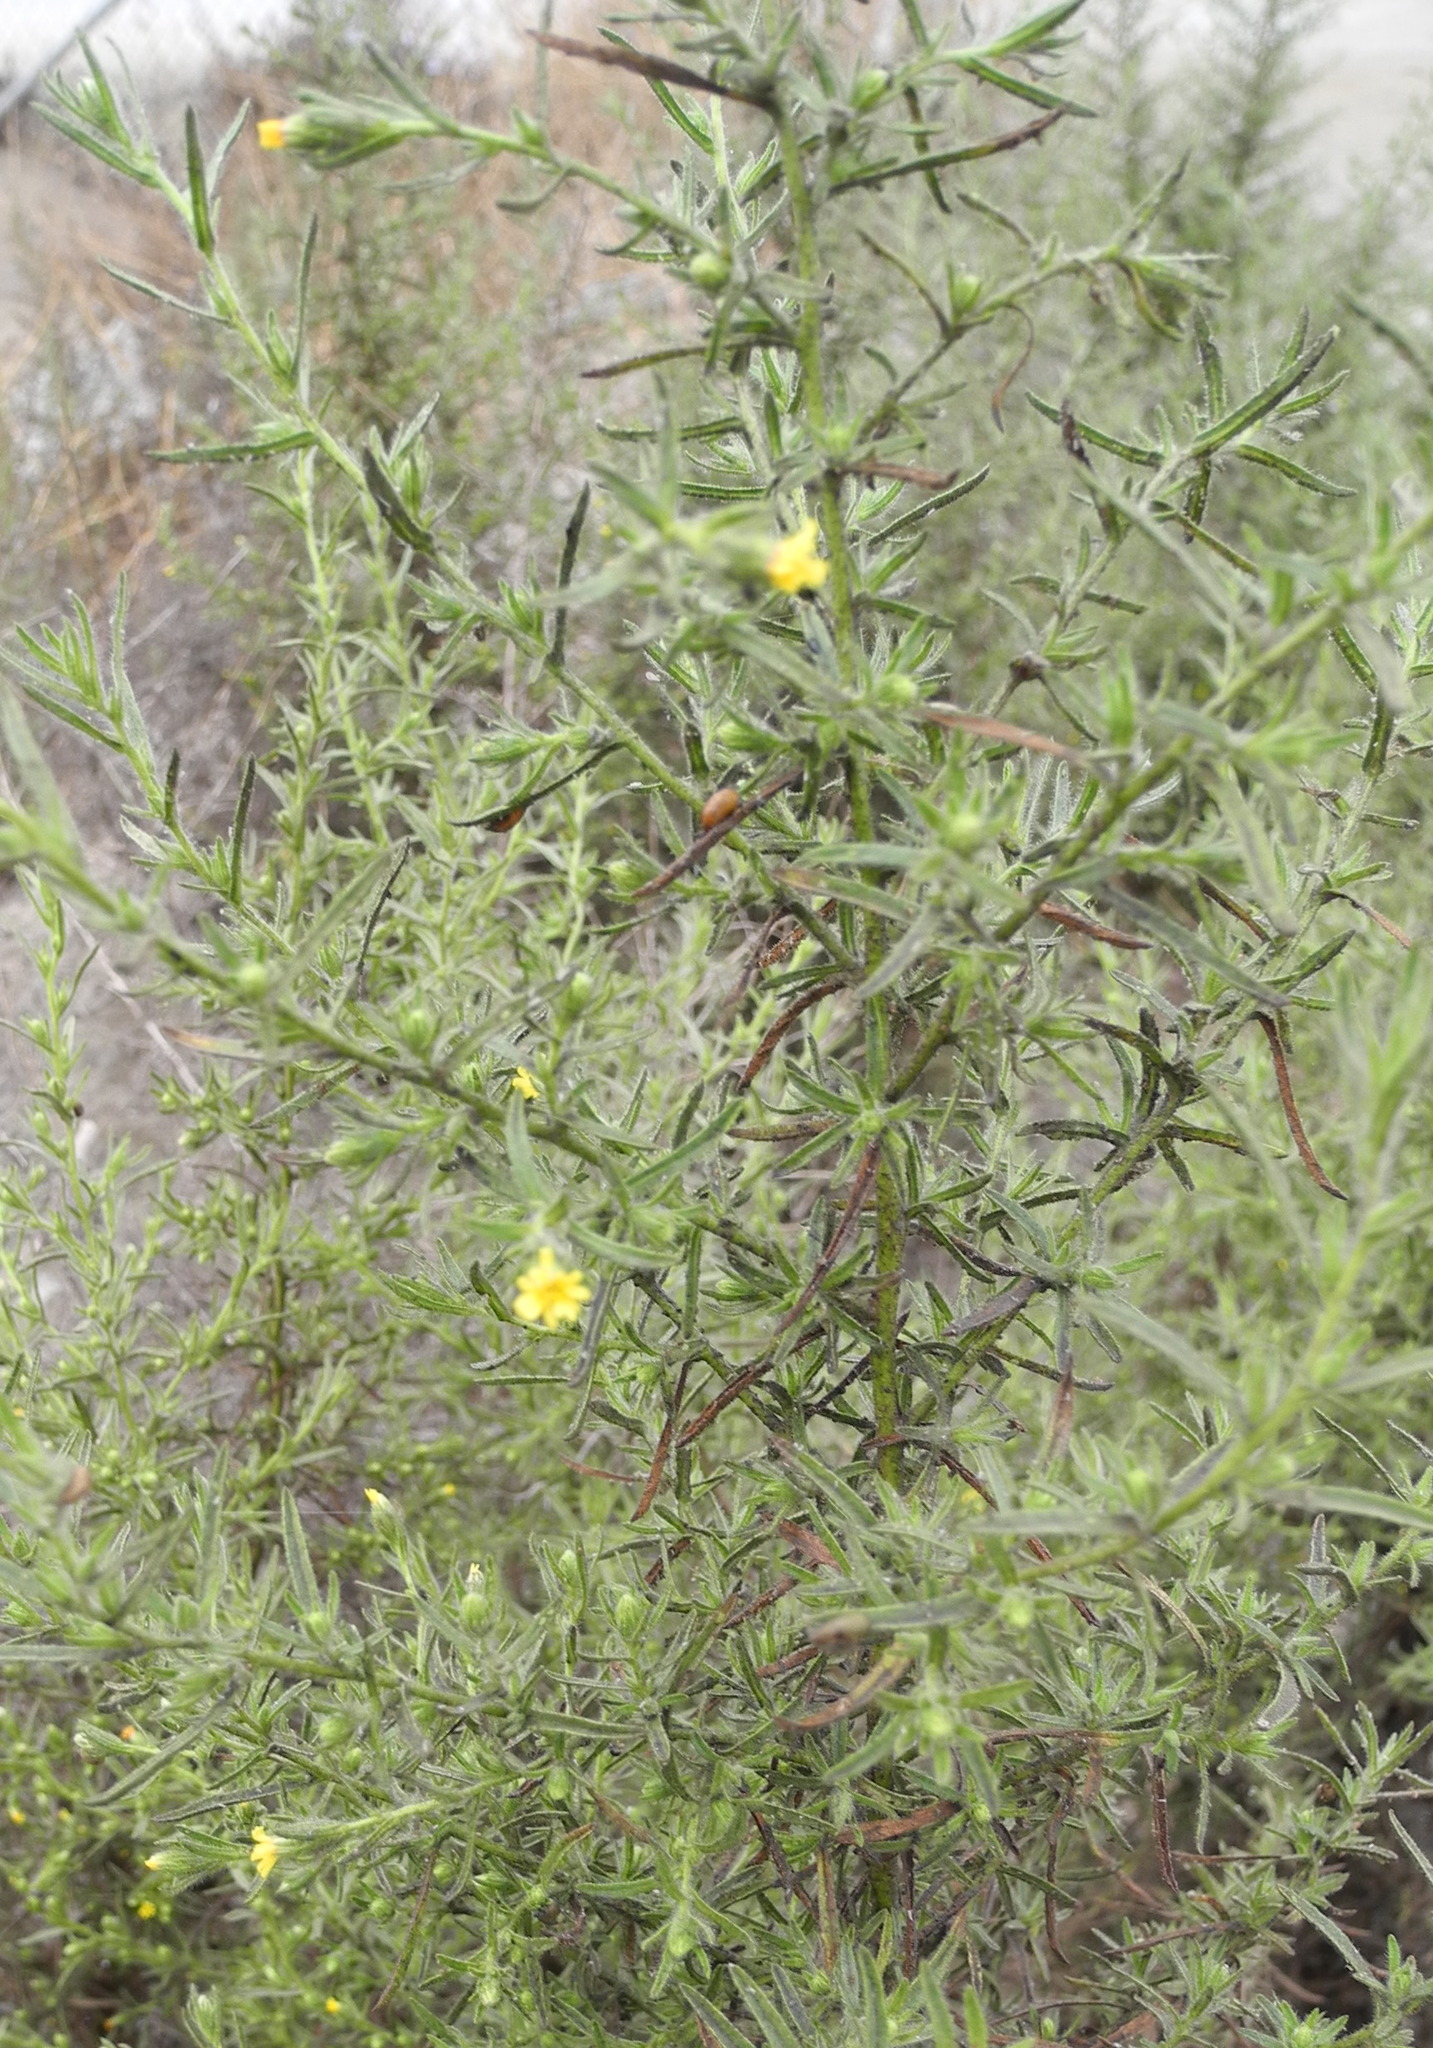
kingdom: Plantae
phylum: Tracheophyta
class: Magnoliopsida
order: Asterales
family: Asteraceae
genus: Dittrichia
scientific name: Dittrichia graveolens
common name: Stinking fleabane
